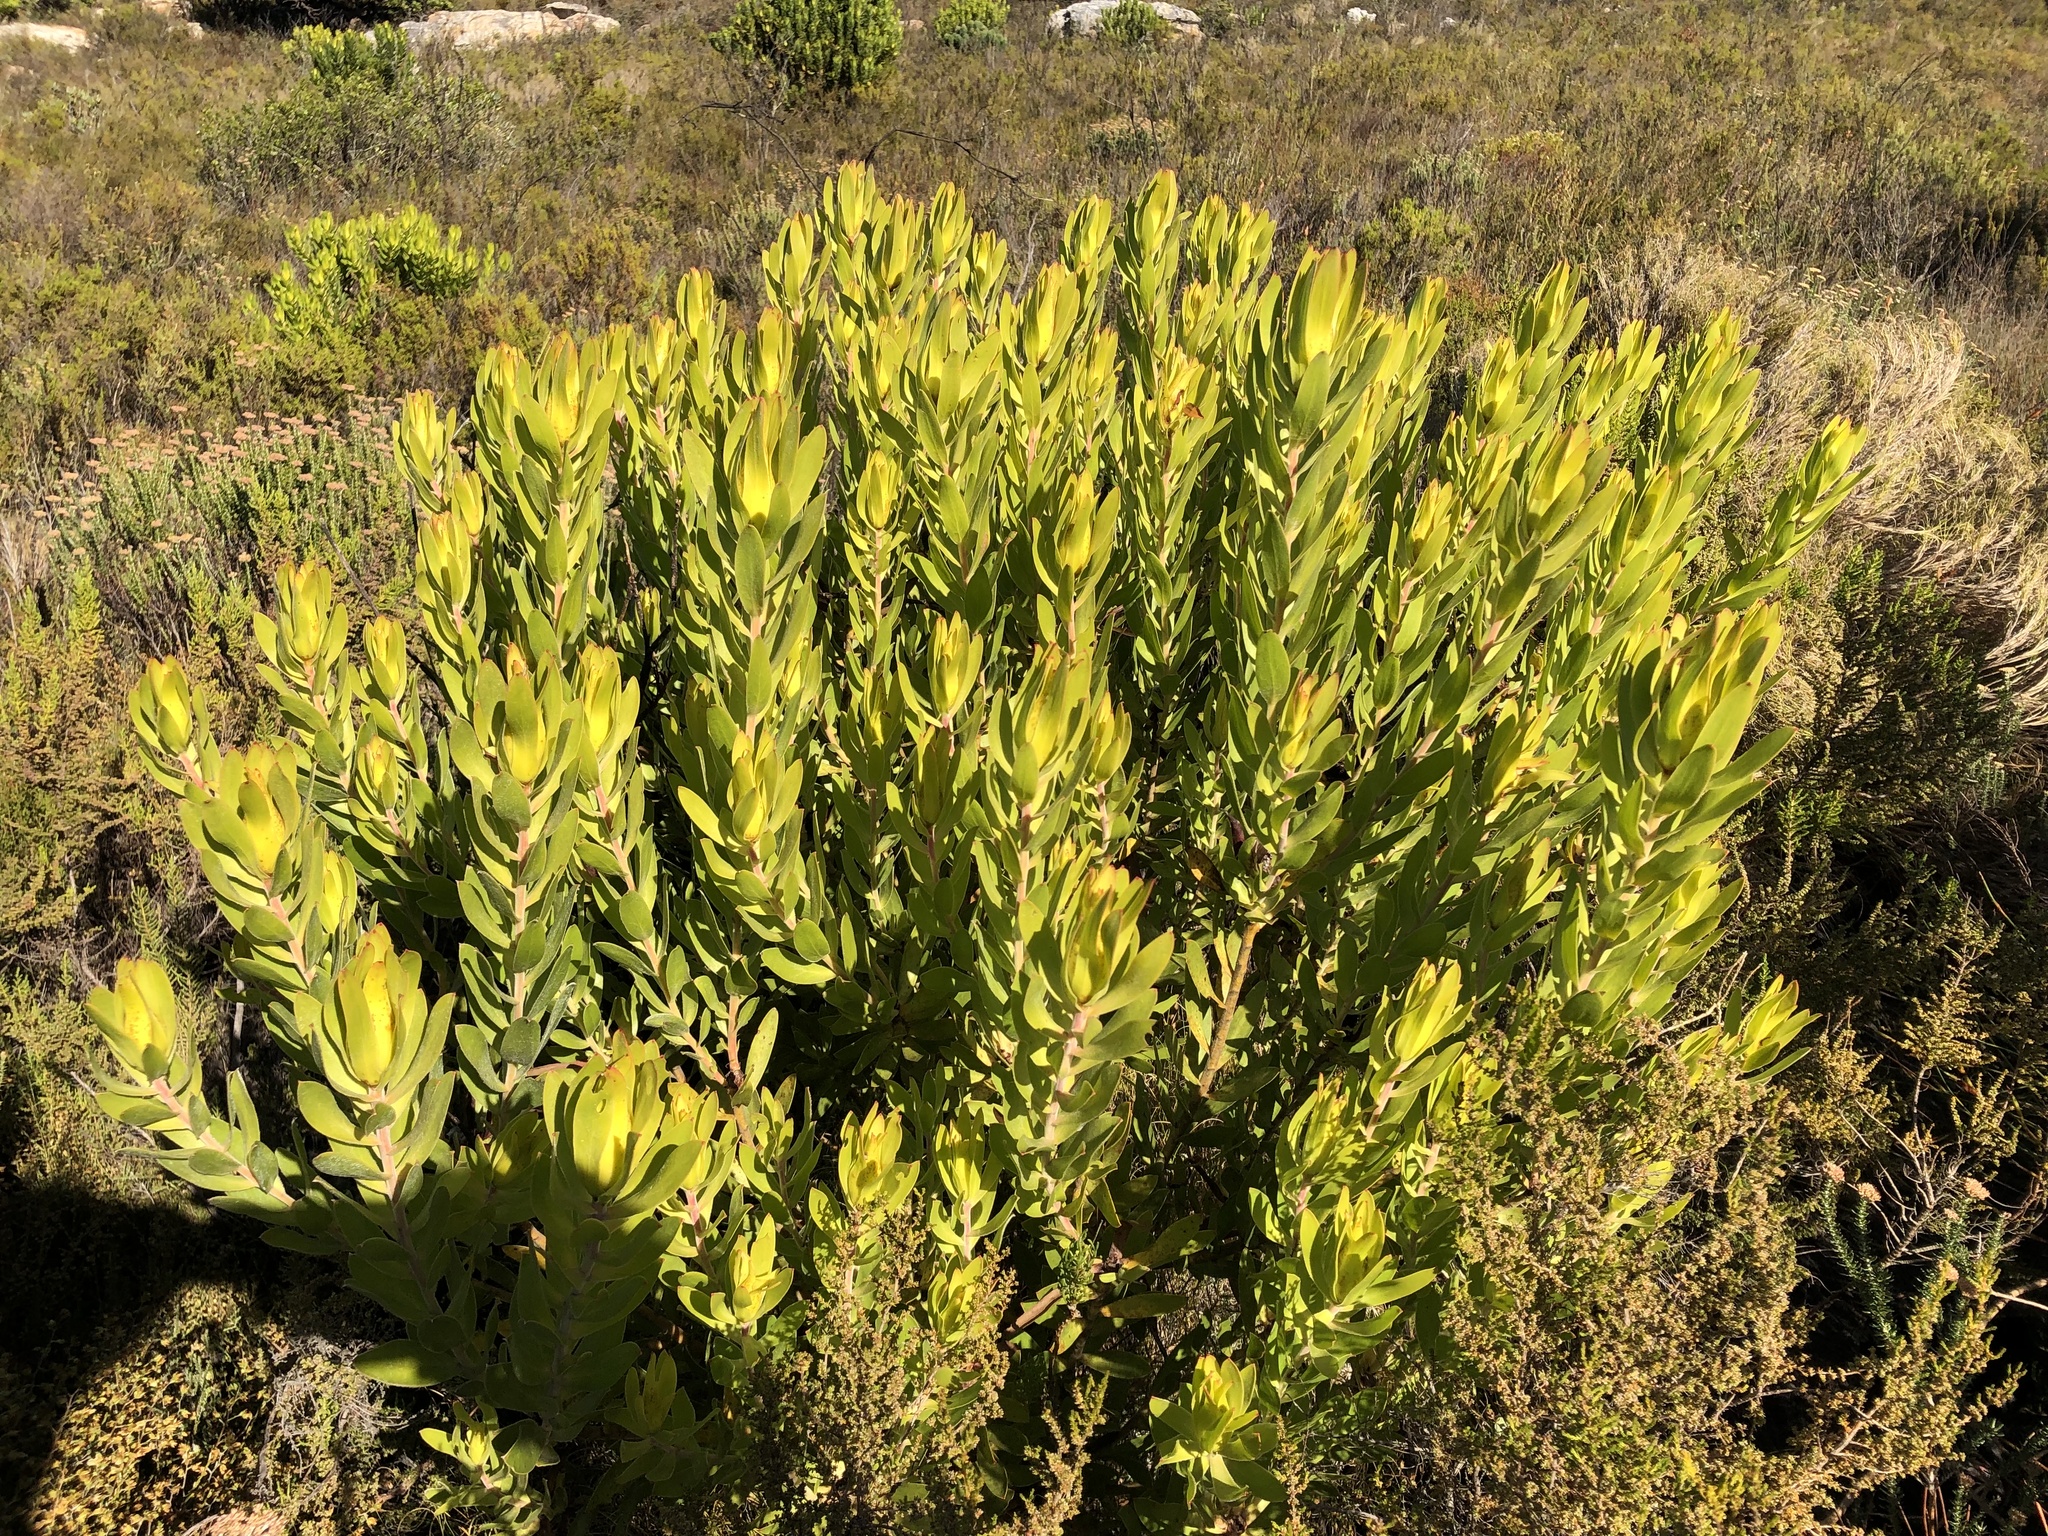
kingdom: Plantae
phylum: Tracheophyta
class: Magnoliopsida
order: Proteales
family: Proteaceae
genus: Leucadendron
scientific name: Leucadendron laureolum
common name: Golden sunshinebush
